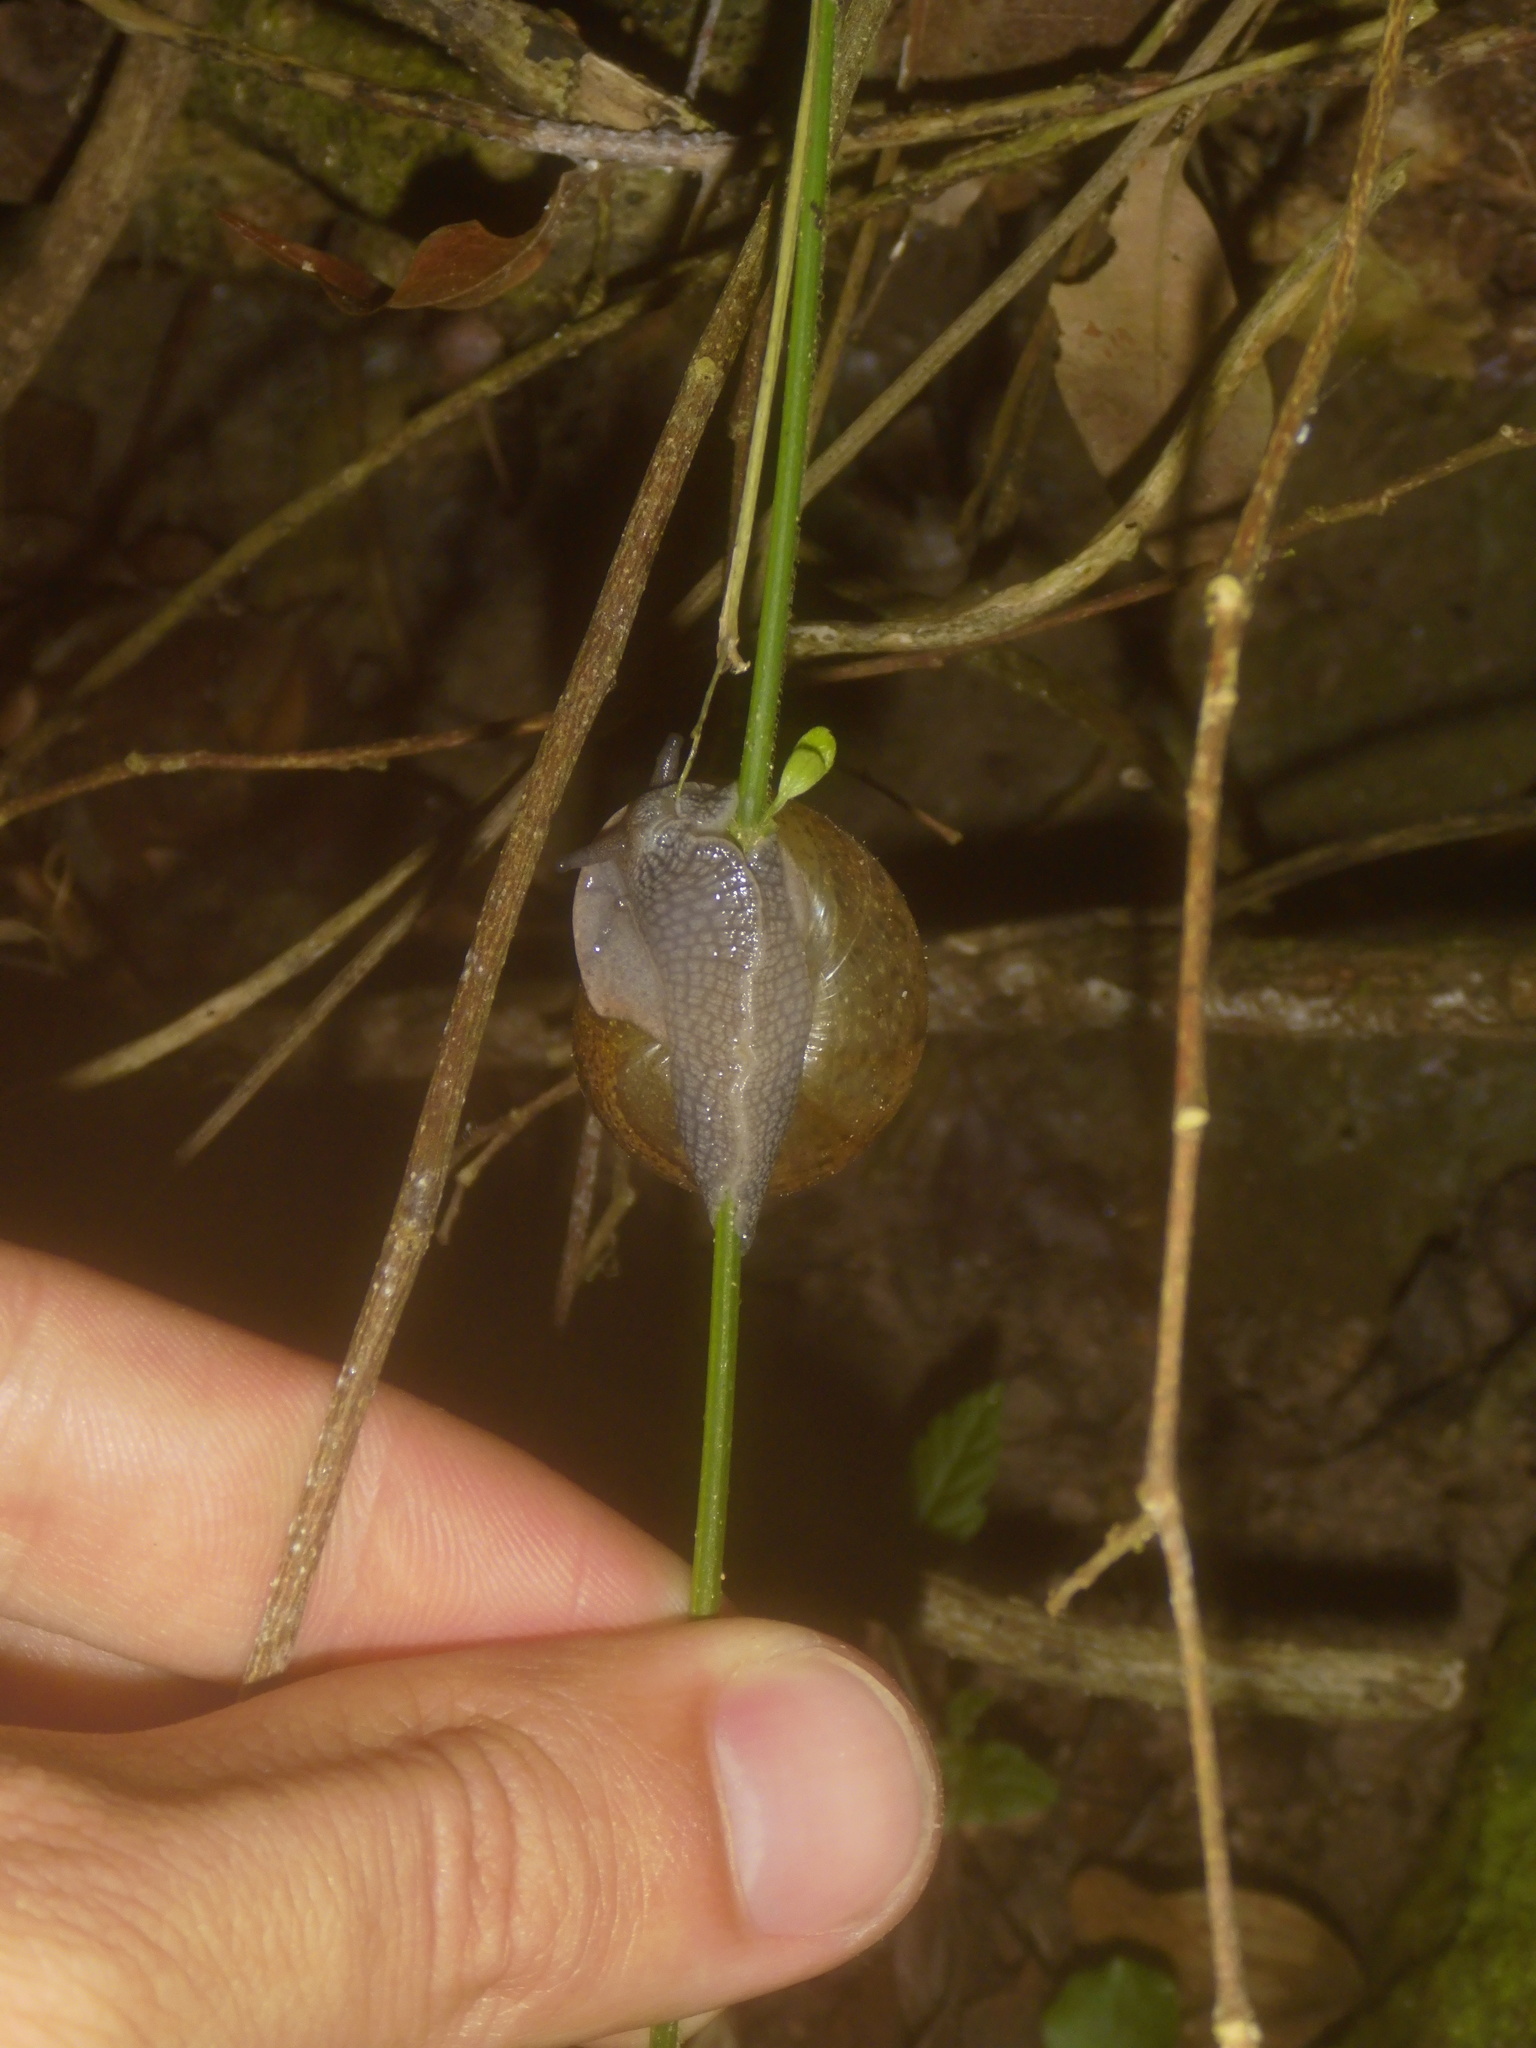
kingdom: Animalia
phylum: Mollusca
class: Gastropoda
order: Stylommatophora
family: Zachrysiidae
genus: Zachrysia
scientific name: Zachrysia provisoria
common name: Garden zachrysia
